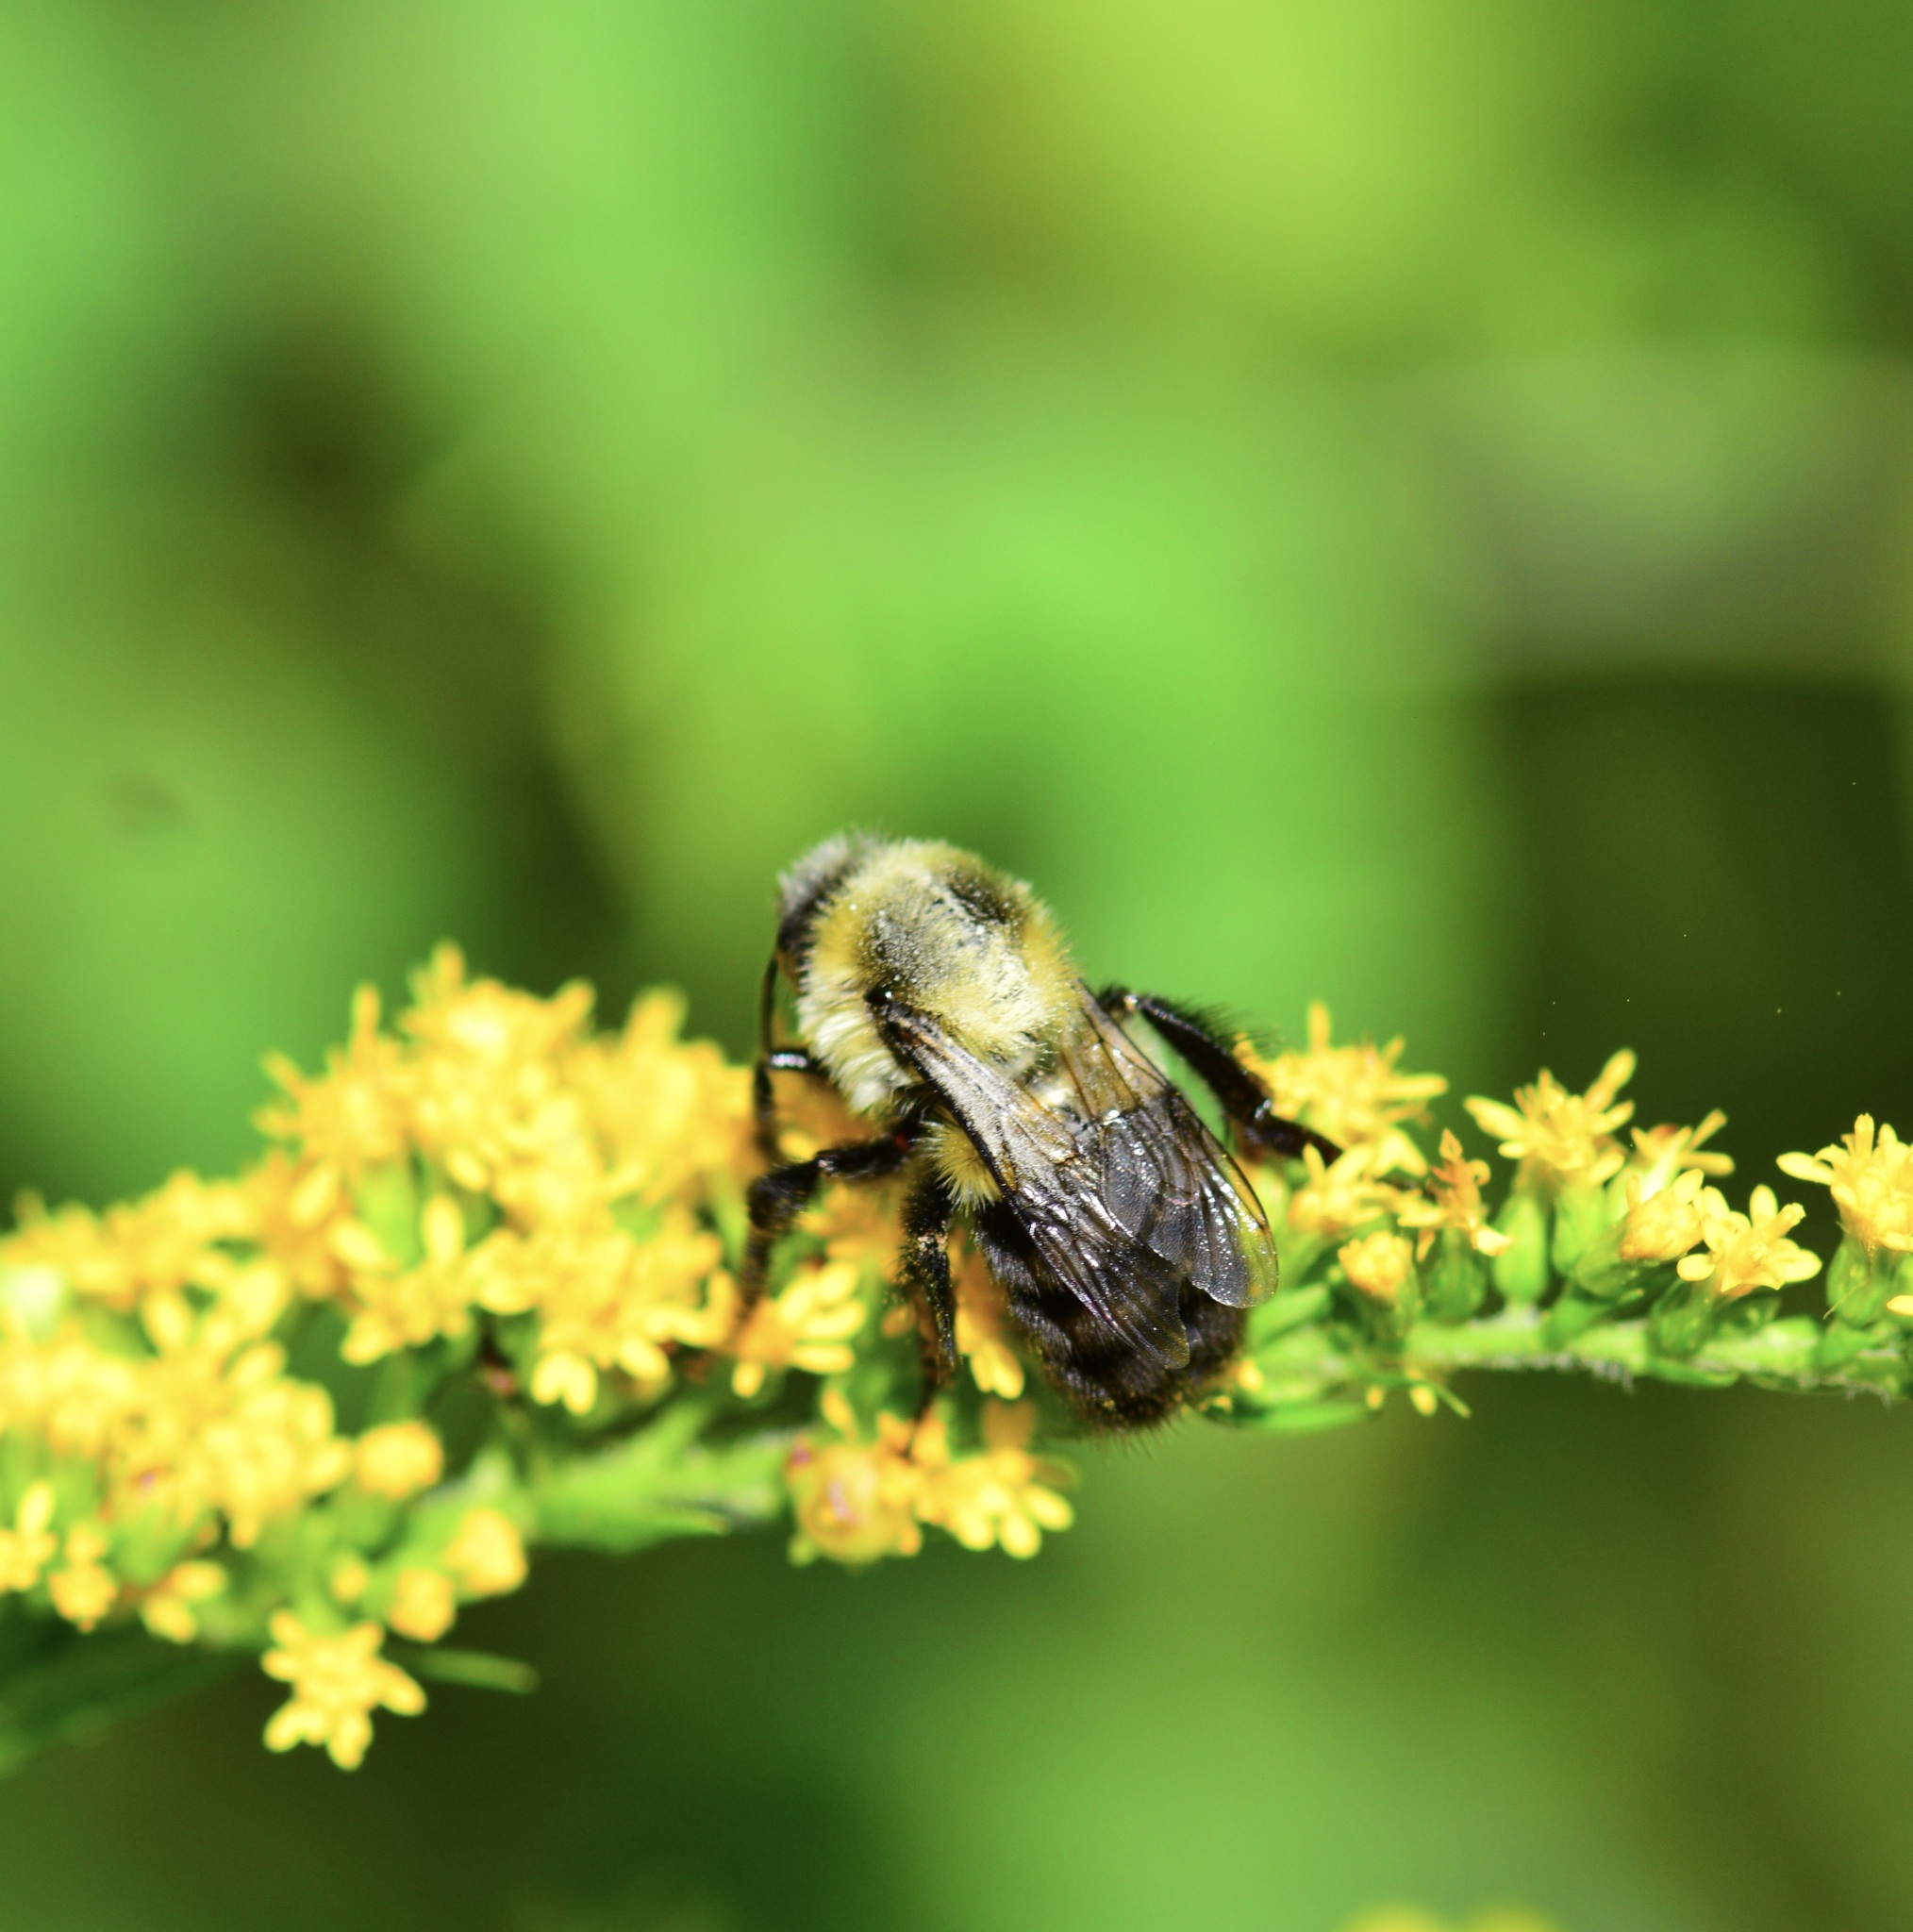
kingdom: Animalia
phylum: Arthropoda
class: Insecta
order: Hymenoptera
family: Apidae
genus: Bombus
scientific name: Bombus impatiens
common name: Common eastern bumble bee
